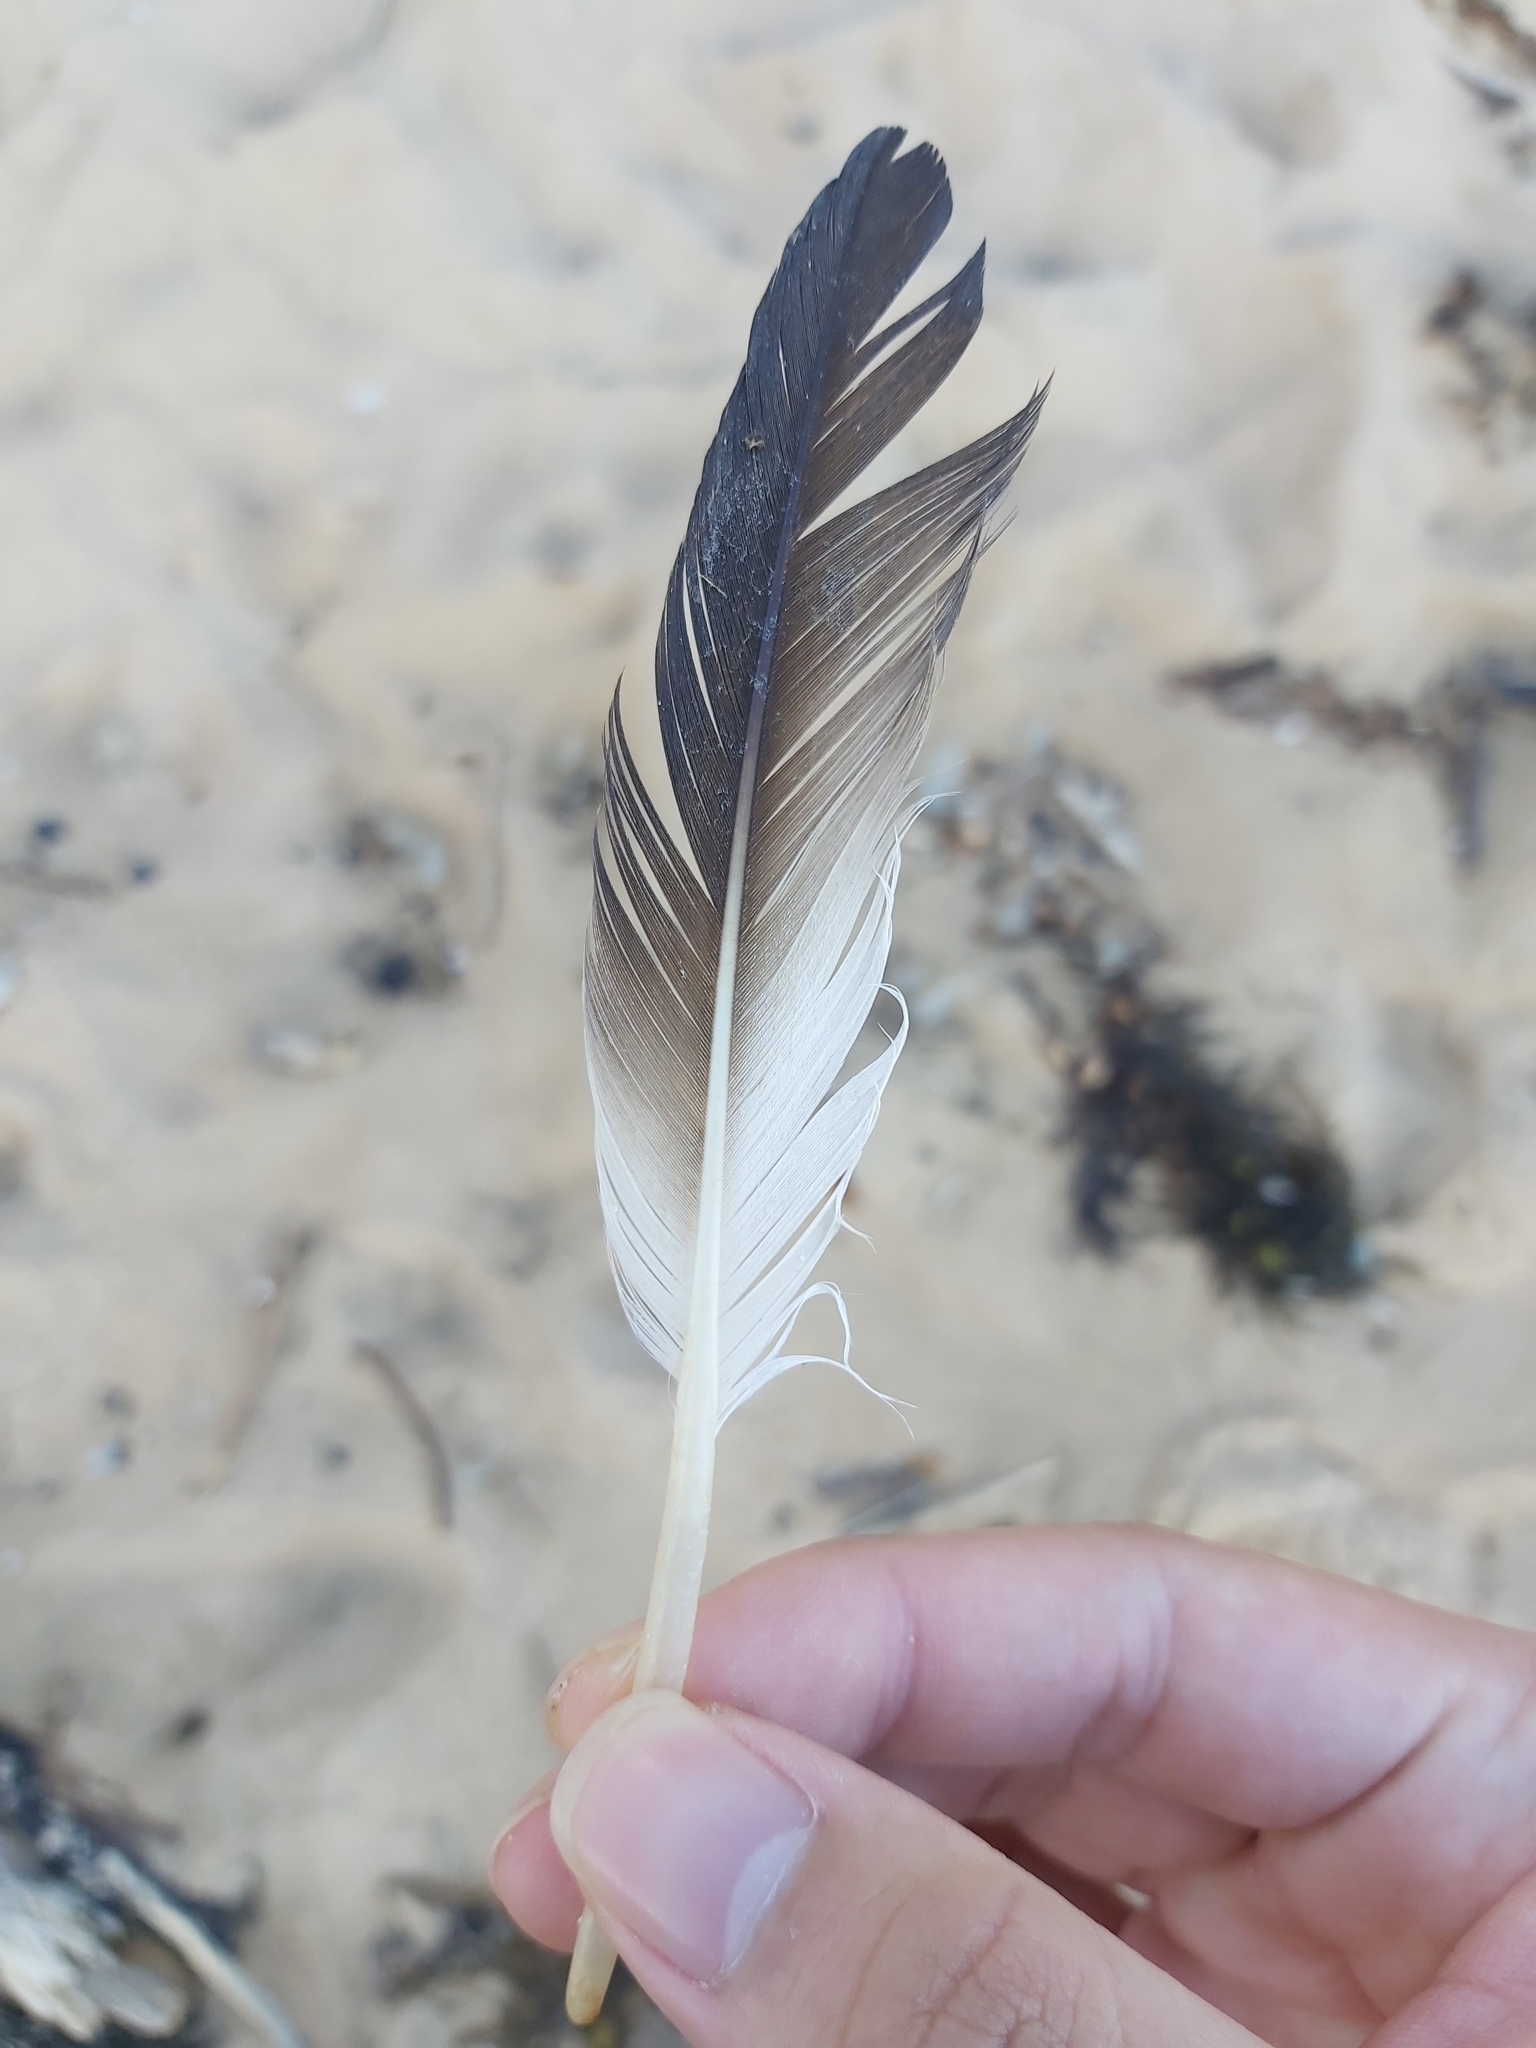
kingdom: Animalia
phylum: Chordata
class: Aves
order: Suliformes
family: Sulidae
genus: Morus
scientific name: Morus serrator
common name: Australasian gannet
